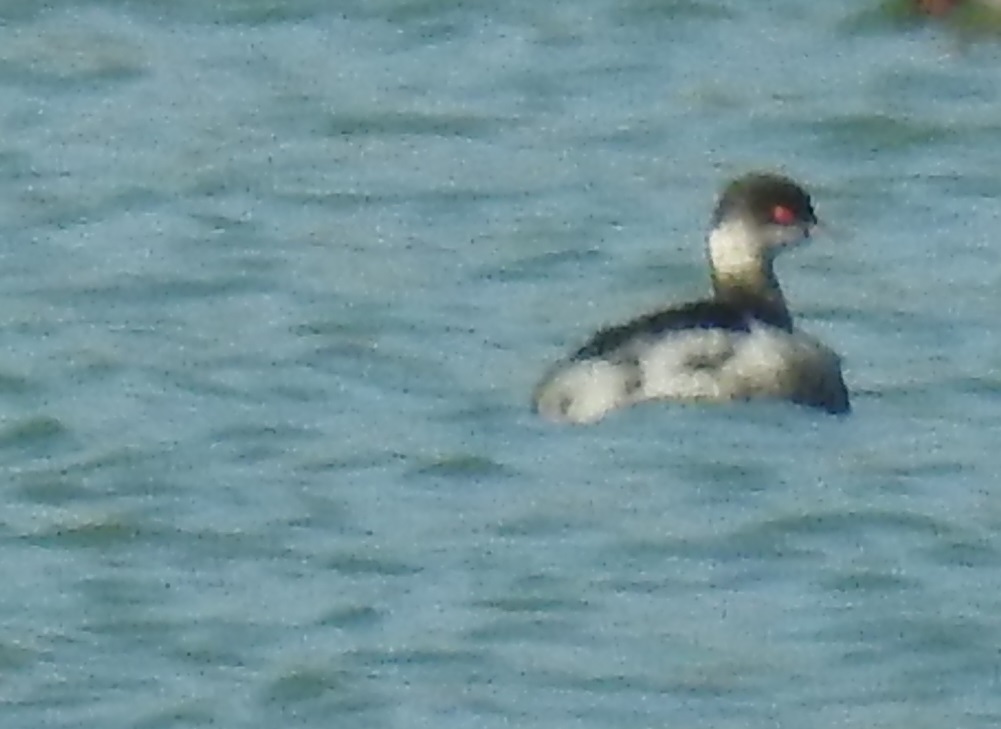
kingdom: Animalia
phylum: Chordata
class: Aves
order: Podicipediformes
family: Podicipedidae
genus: Podiceps
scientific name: Podiceps nigricollis
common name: Black-necked grebe
